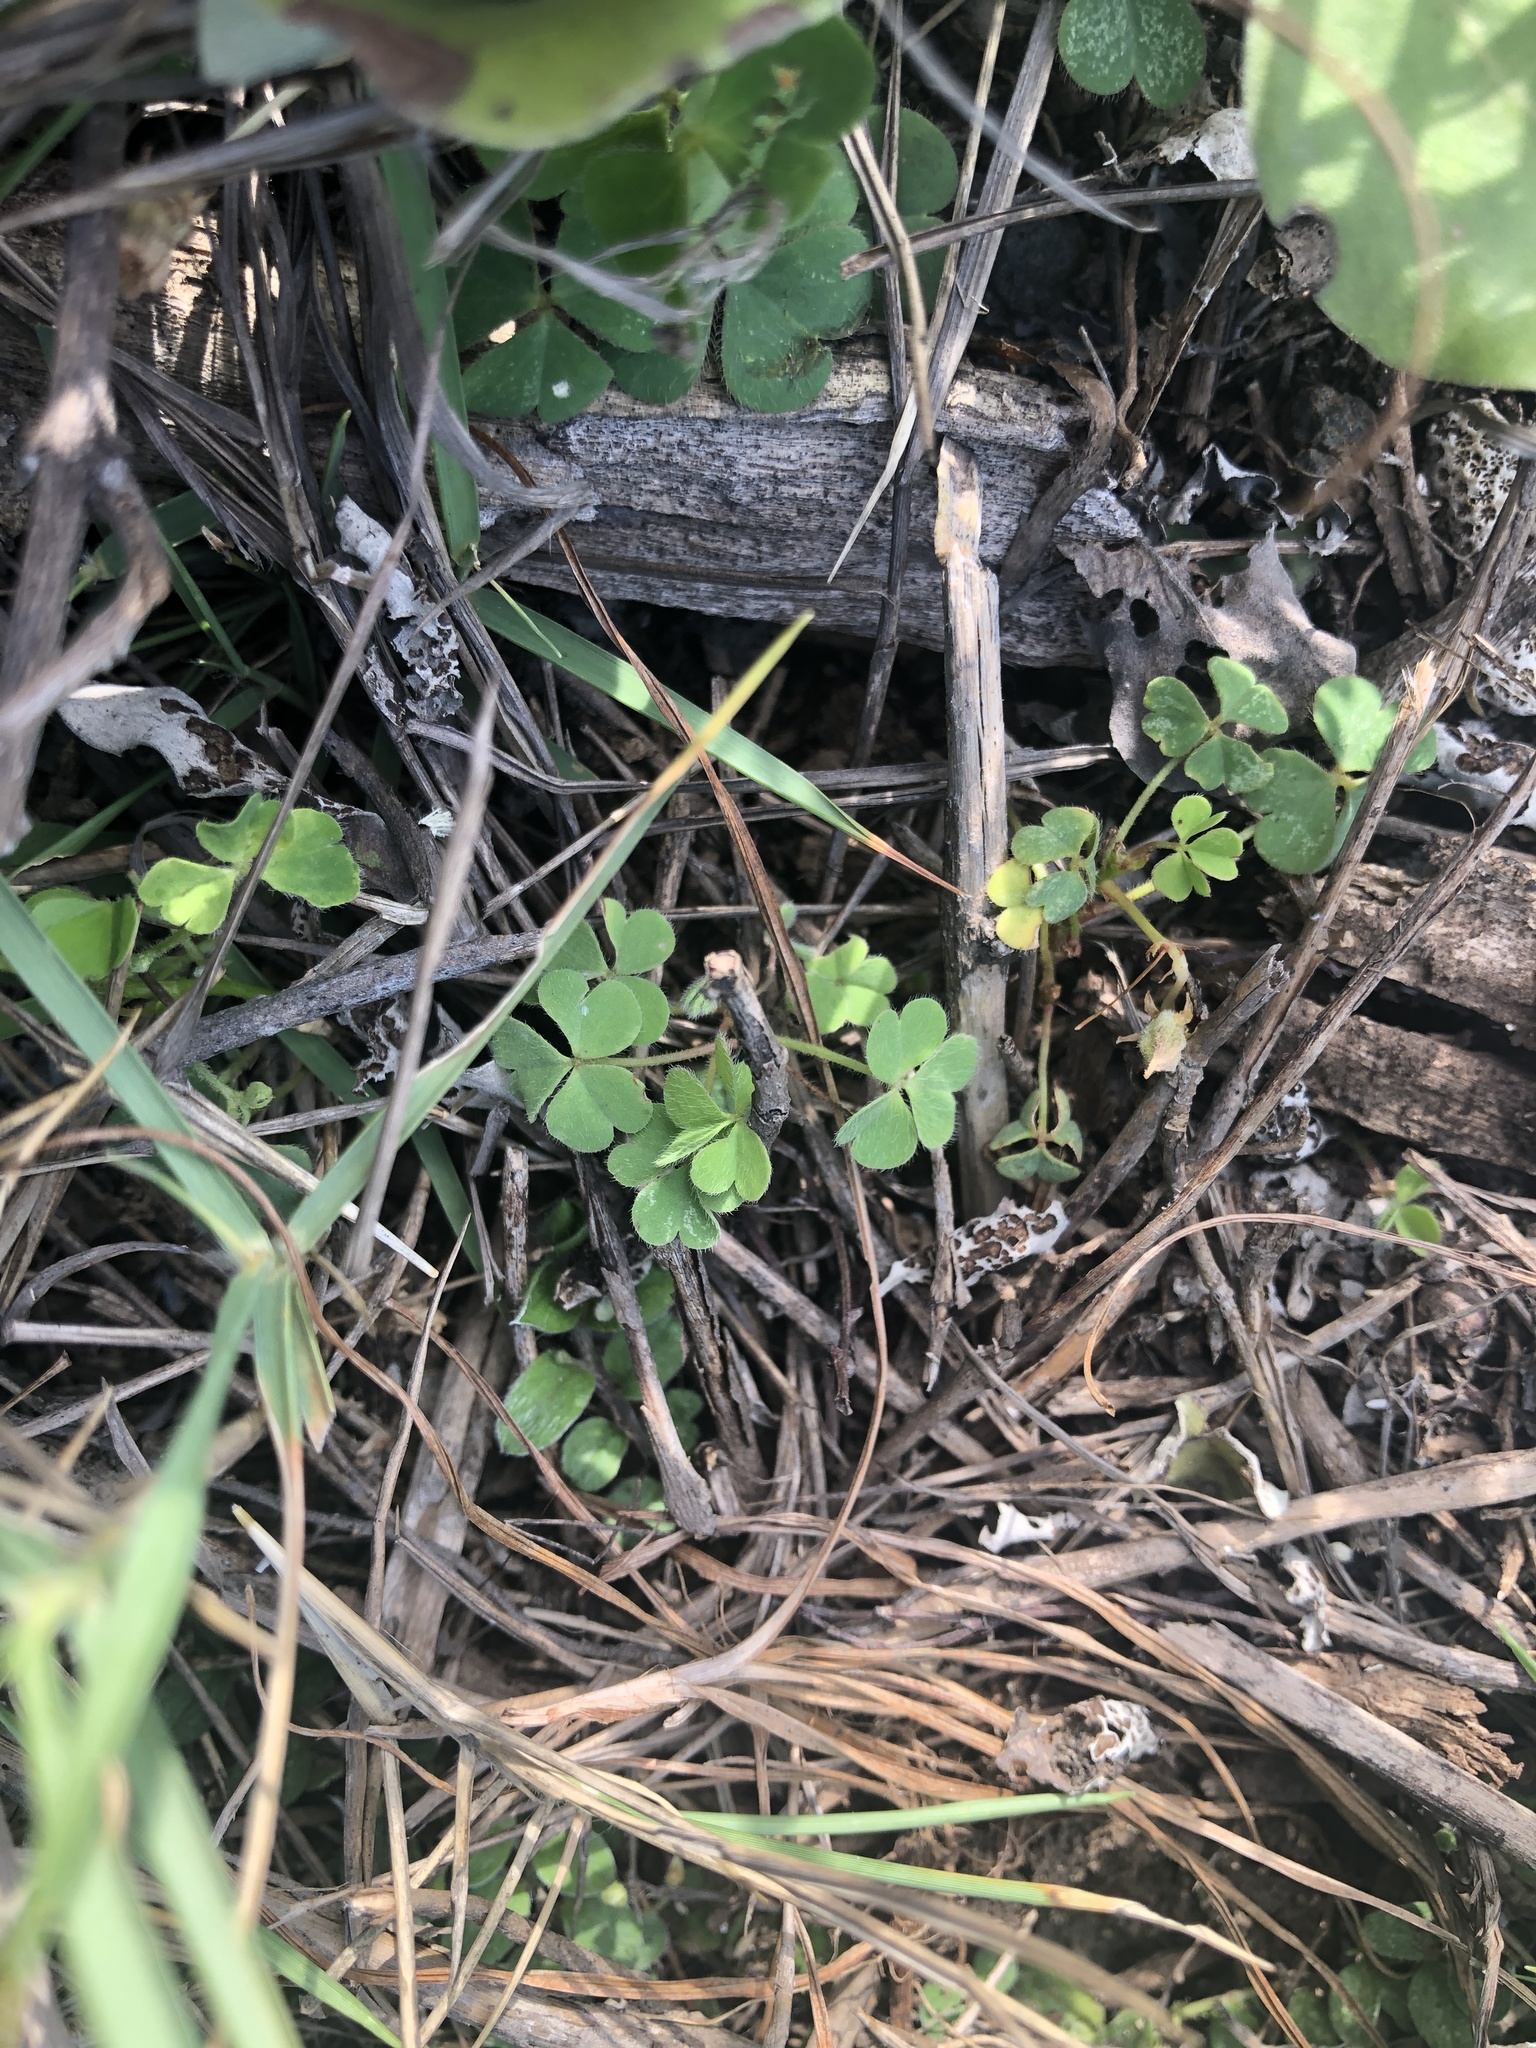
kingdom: Plantae
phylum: Tracheophyta
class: Magnoliopsida
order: Oxalidales
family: Oxalidaceae
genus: Oxalis
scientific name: Oxalis corniculata
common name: Procumbent yellow-sorrel
